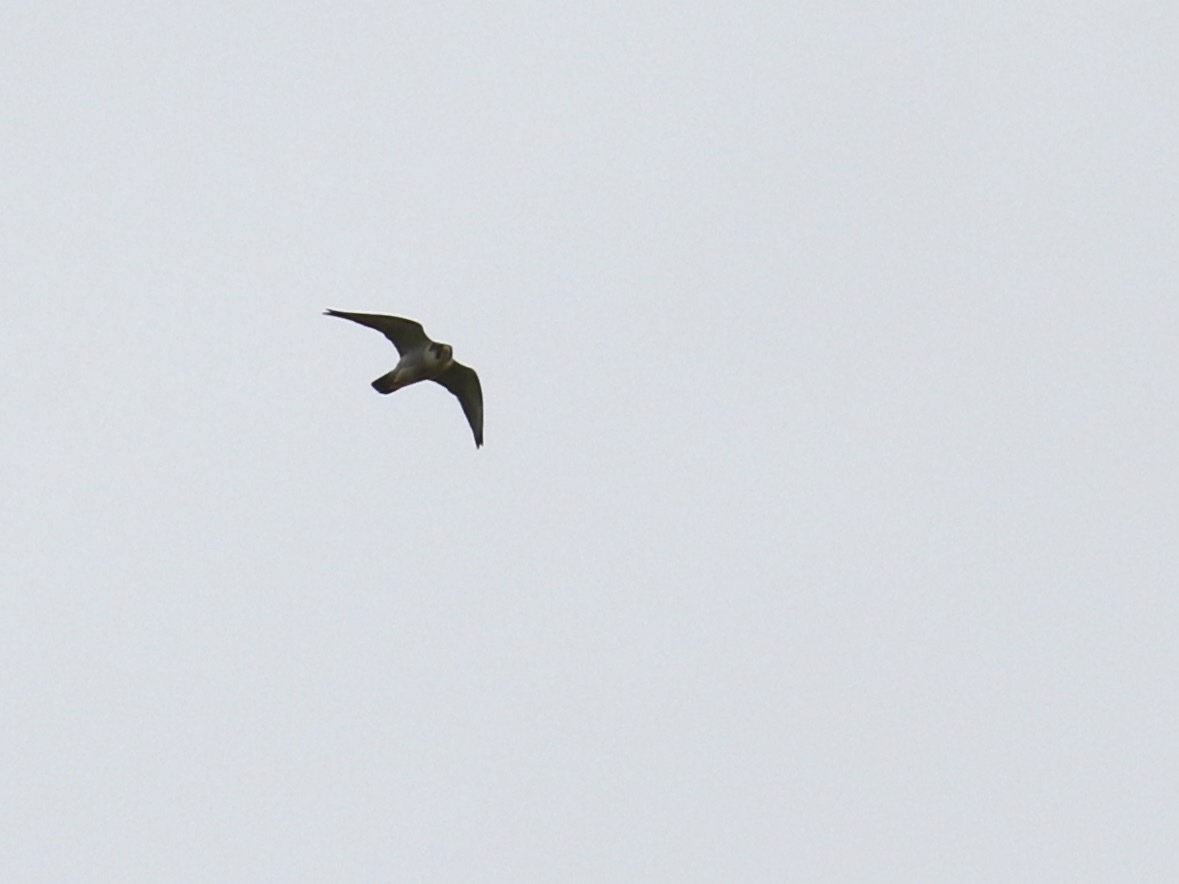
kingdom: Animalia
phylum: Chordata
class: Aves
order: Falconiformes
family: Falconidae
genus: Falco
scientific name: Falco peregrinus
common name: Peregrine falcon
